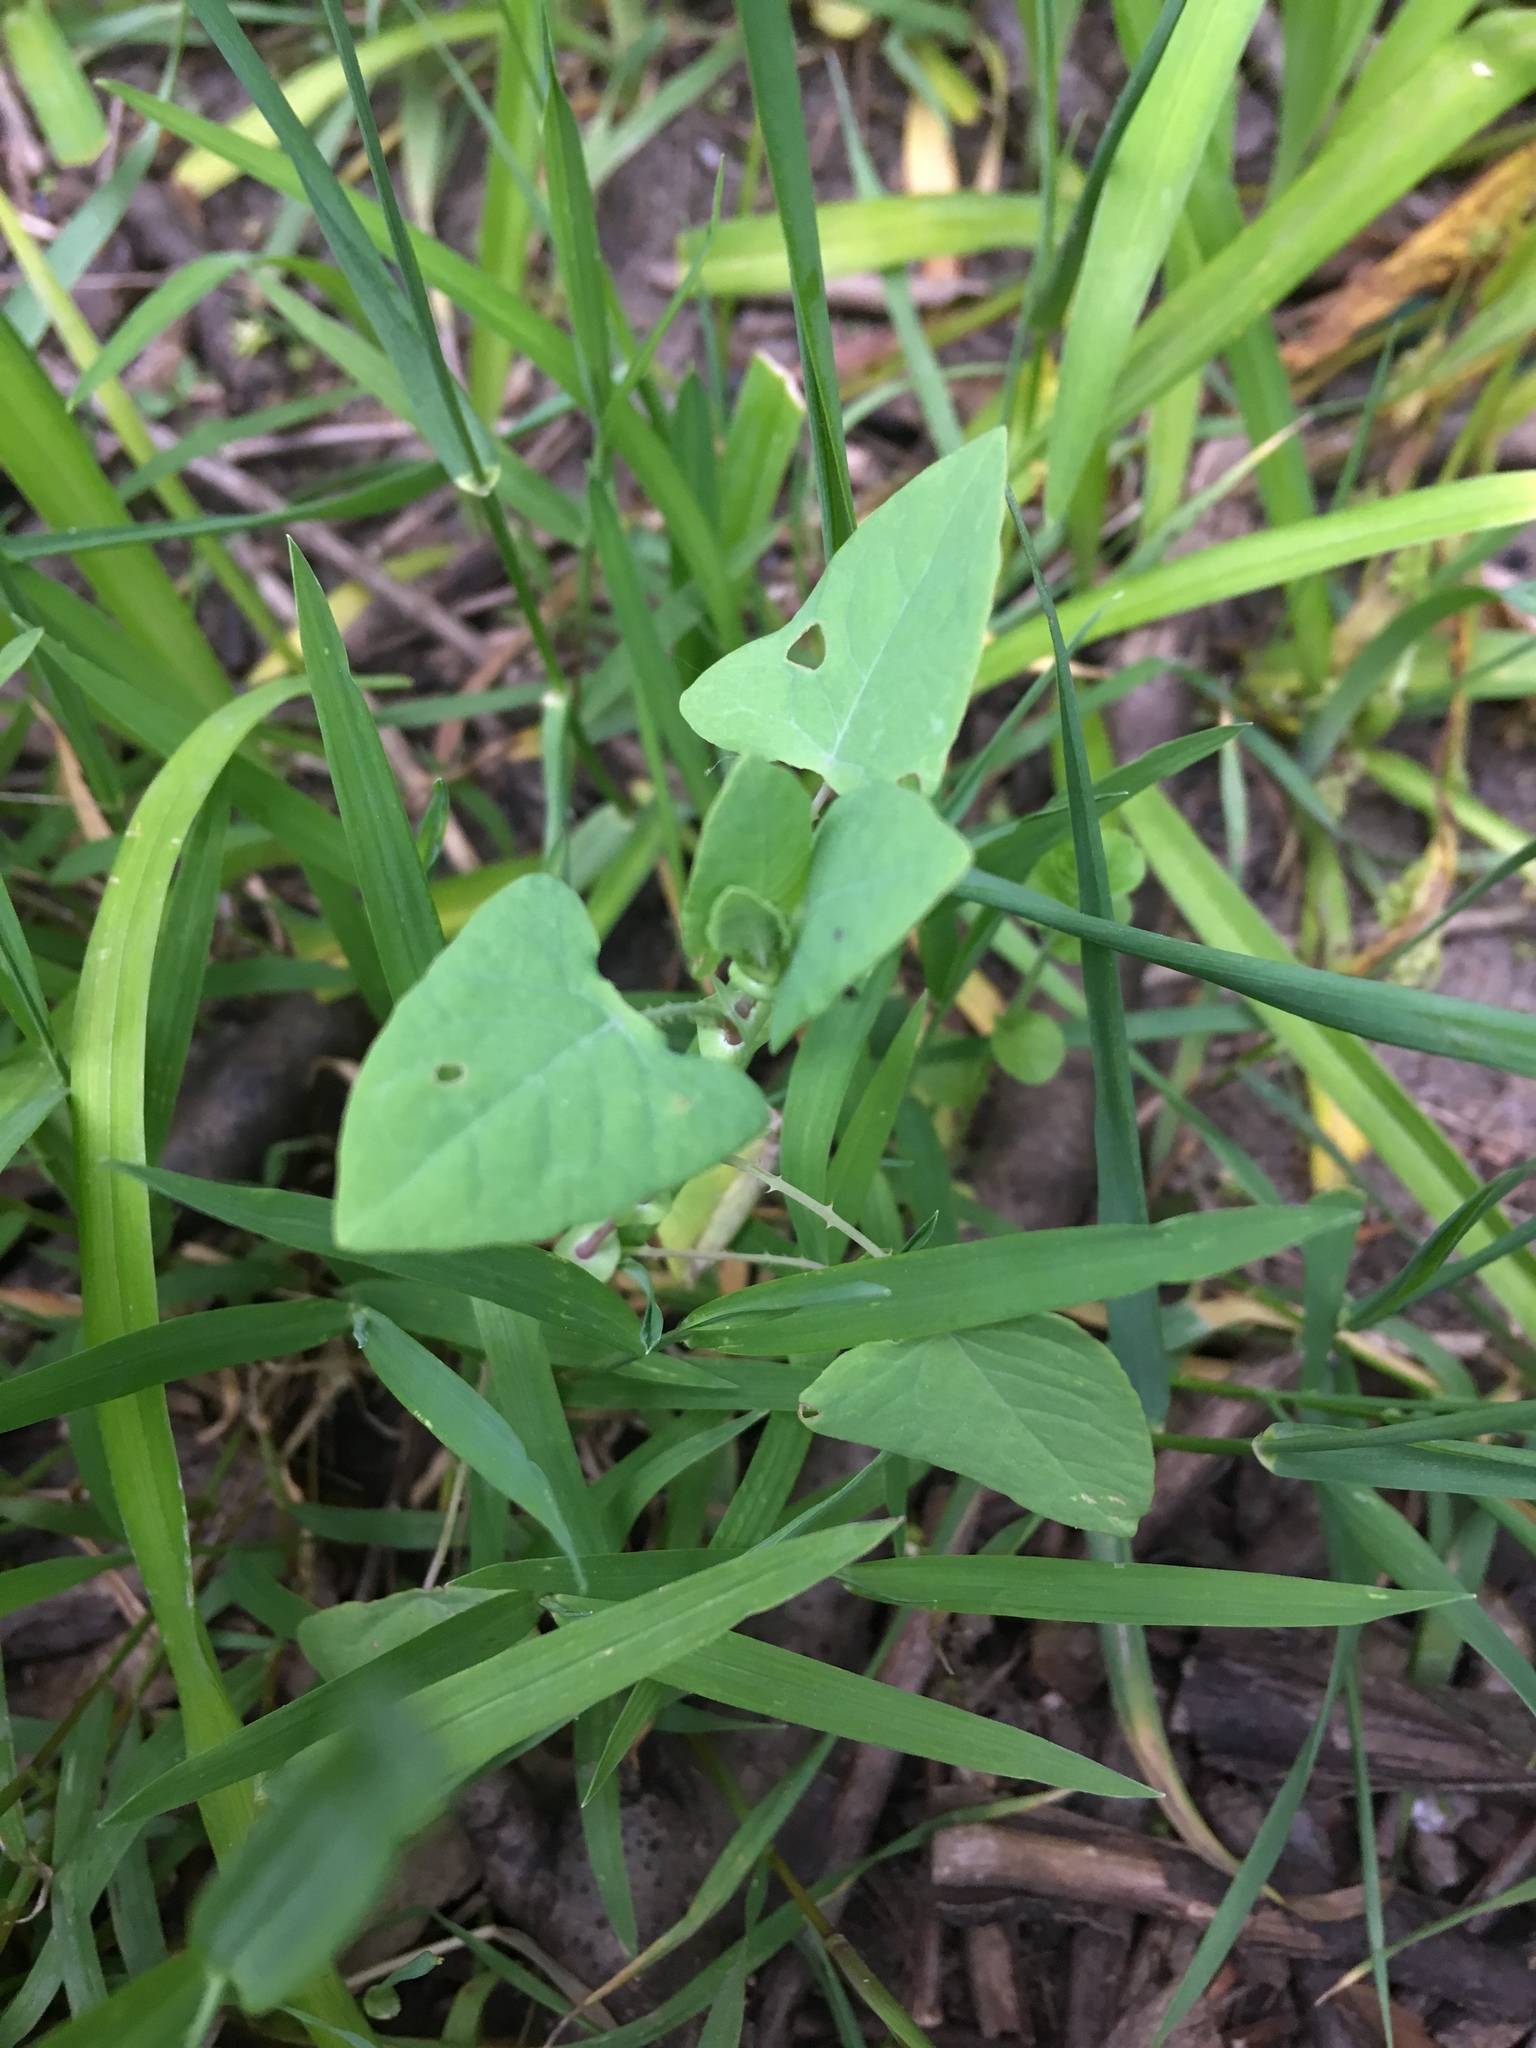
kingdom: Plantae
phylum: Tracheophyta
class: Magnoliopsida
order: Caryophyllales
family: Polygonaceae
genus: Persicaria
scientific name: Persicaria perfoliata
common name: Asiatic tearthumb
